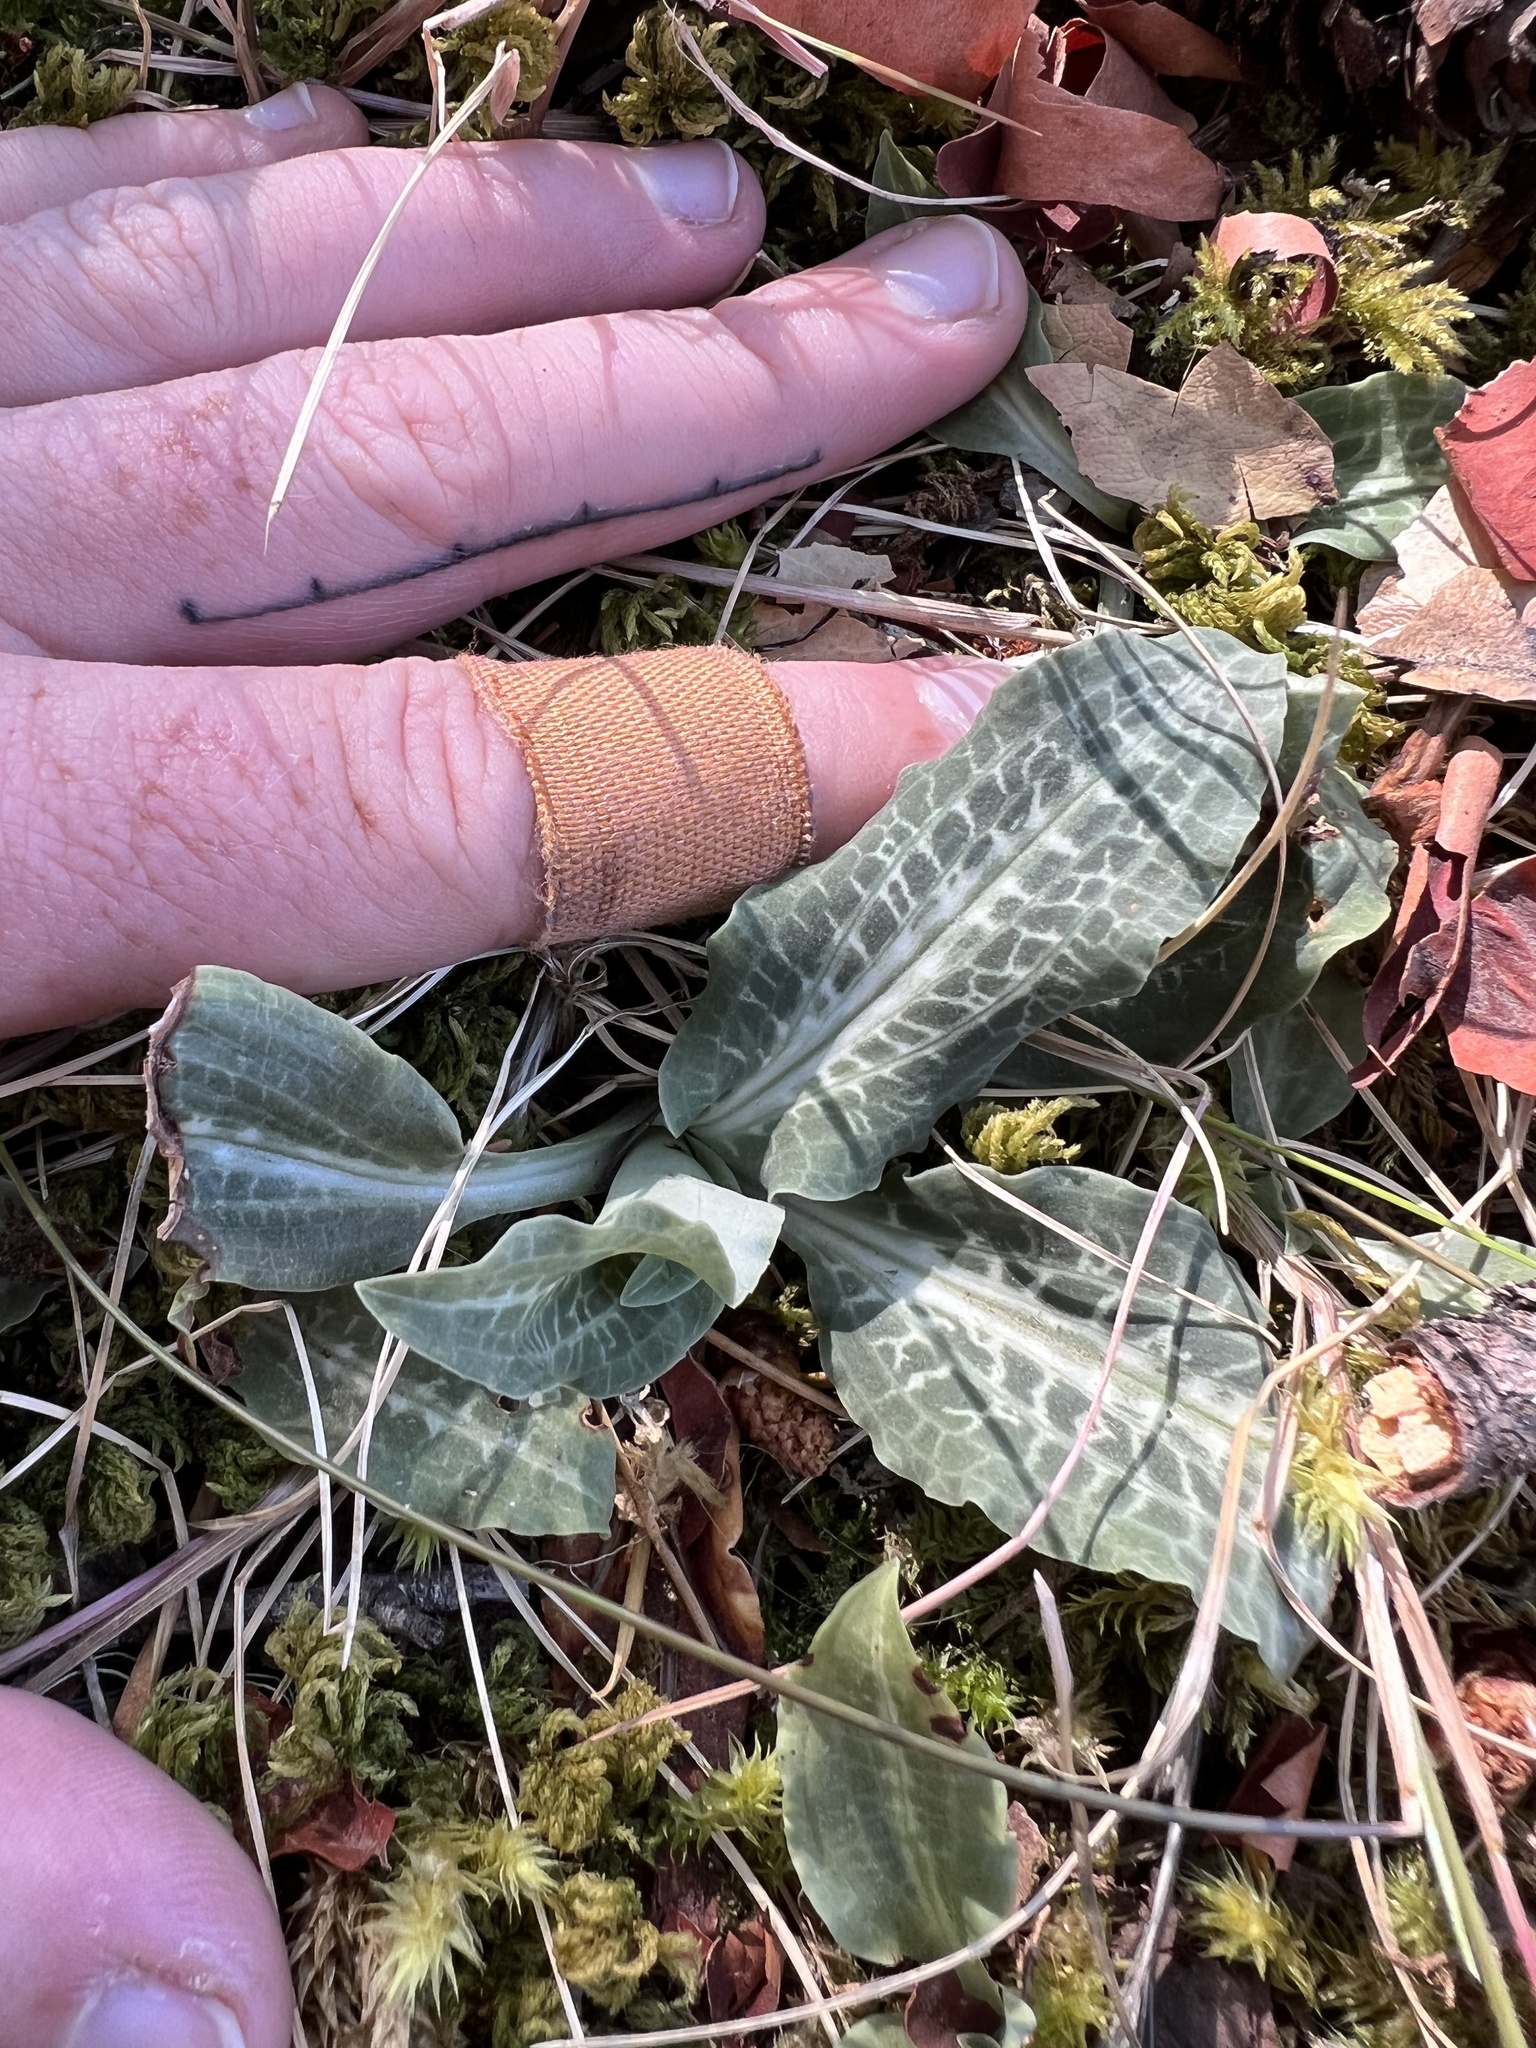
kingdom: Plantae
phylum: Tracheophyta
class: Liliopsida
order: Asparagales
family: Orchidaceae
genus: Goodyera
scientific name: Goodyera oblongifolia
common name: Giant rattlesnake-plantain
